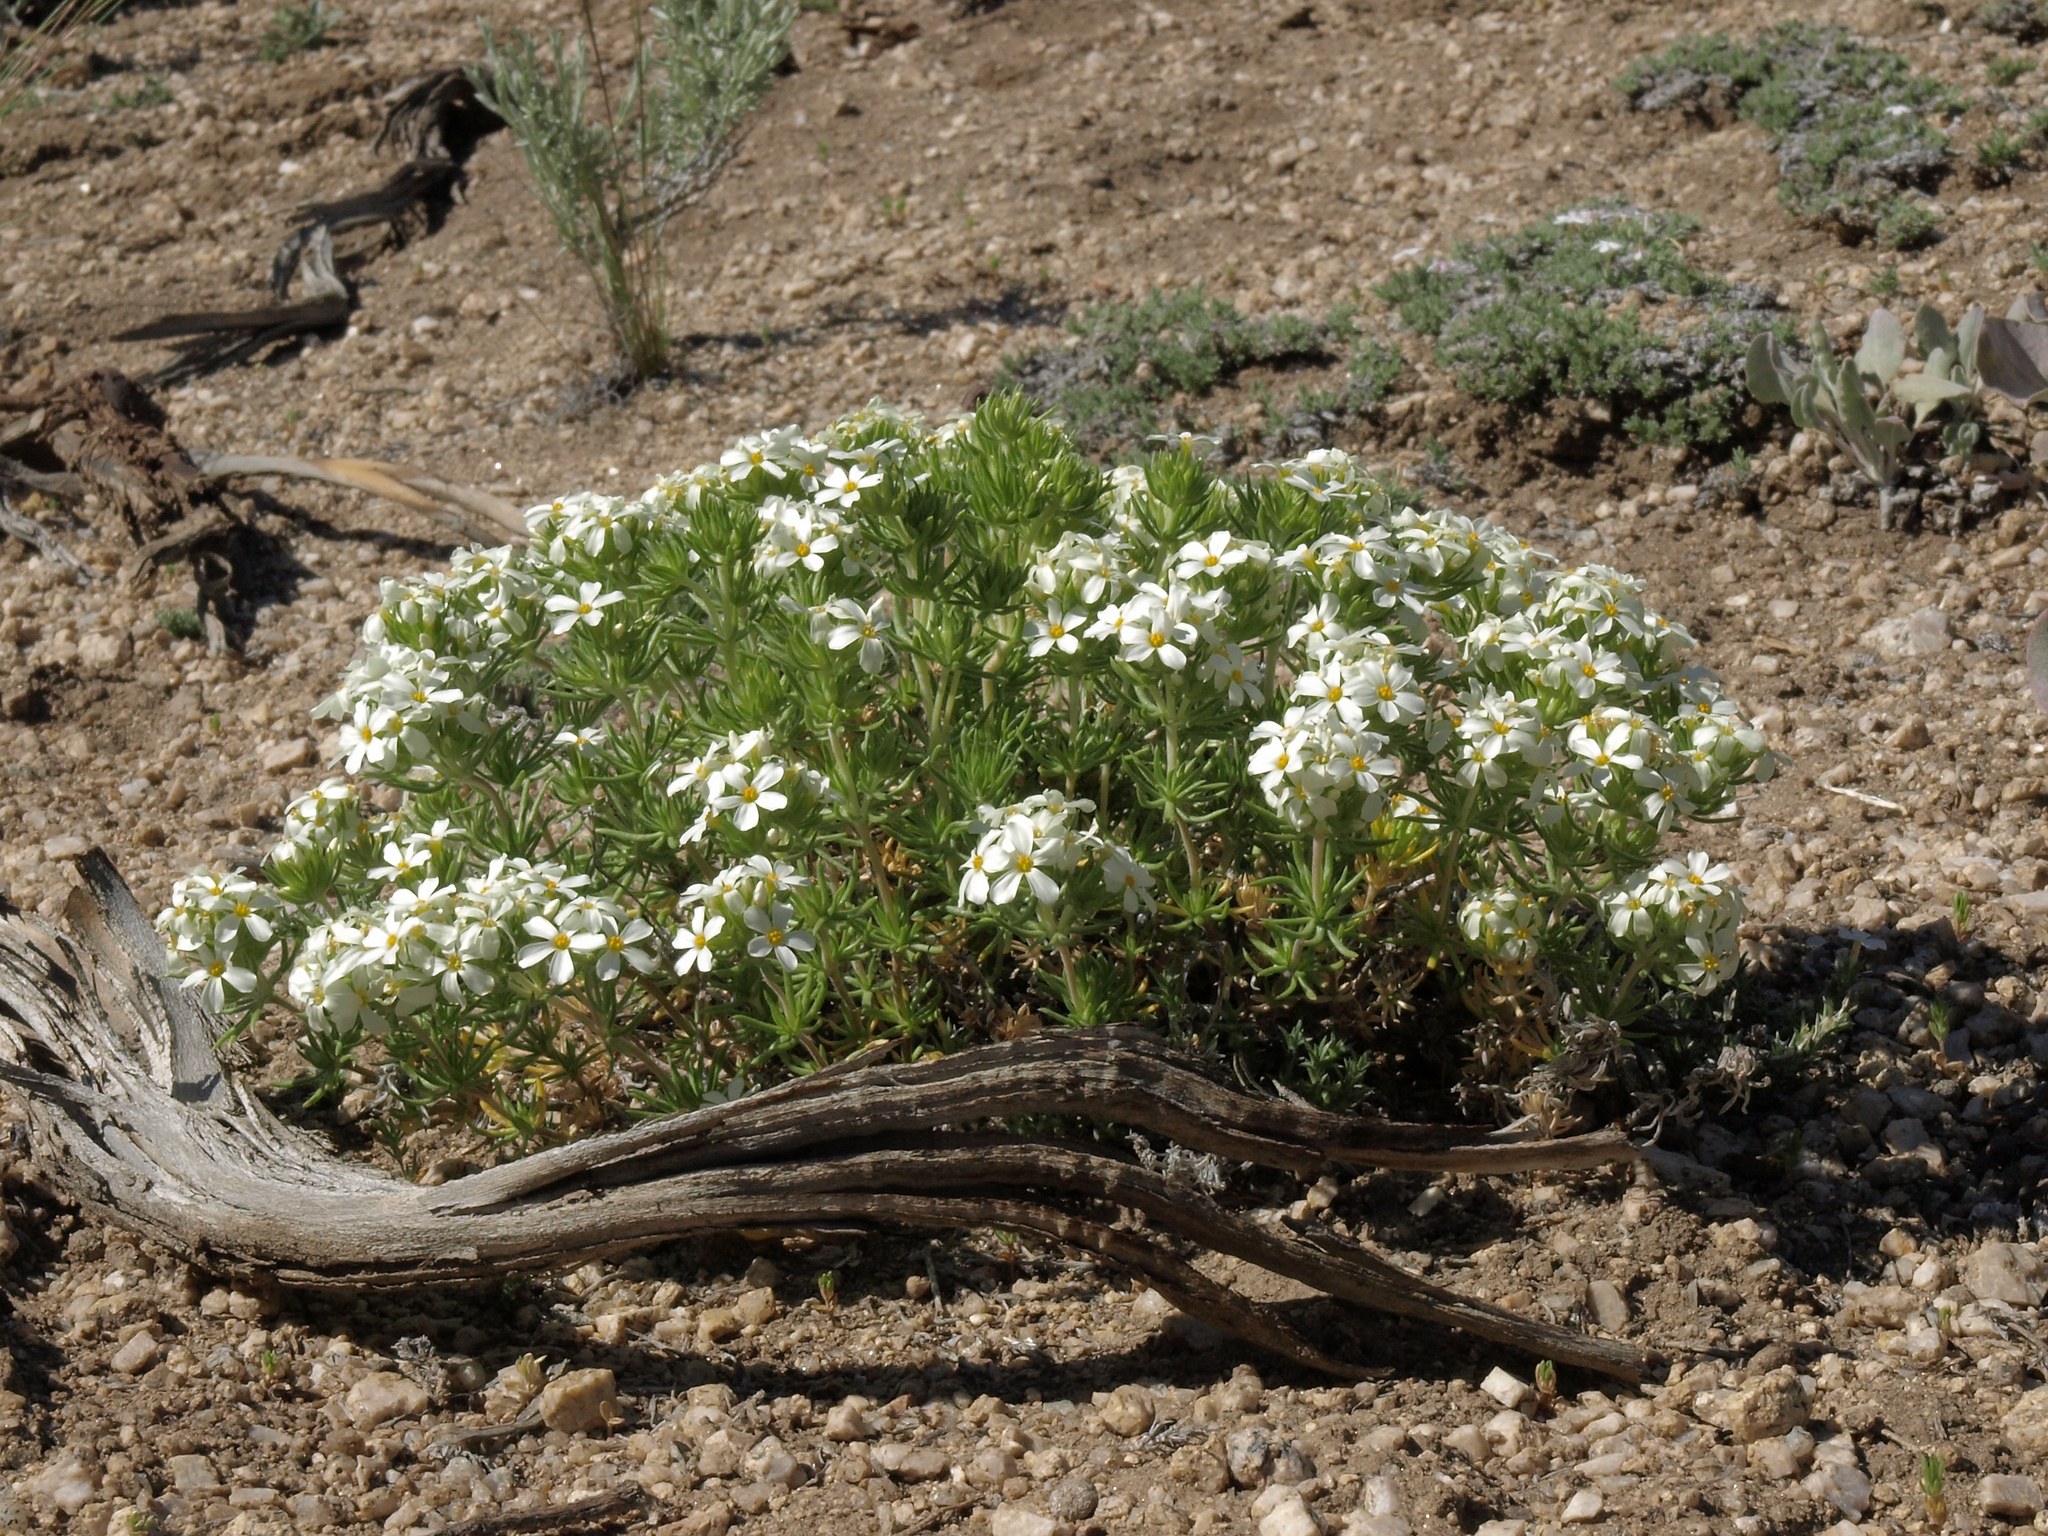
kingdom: Plantae
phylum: Tracheophyta
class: Magnoliopsida
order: Ericales
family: Polemoniaceae
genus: Leptosiphon
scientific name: Leptosiphon nuttallii
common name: Nuttall's linanthus
